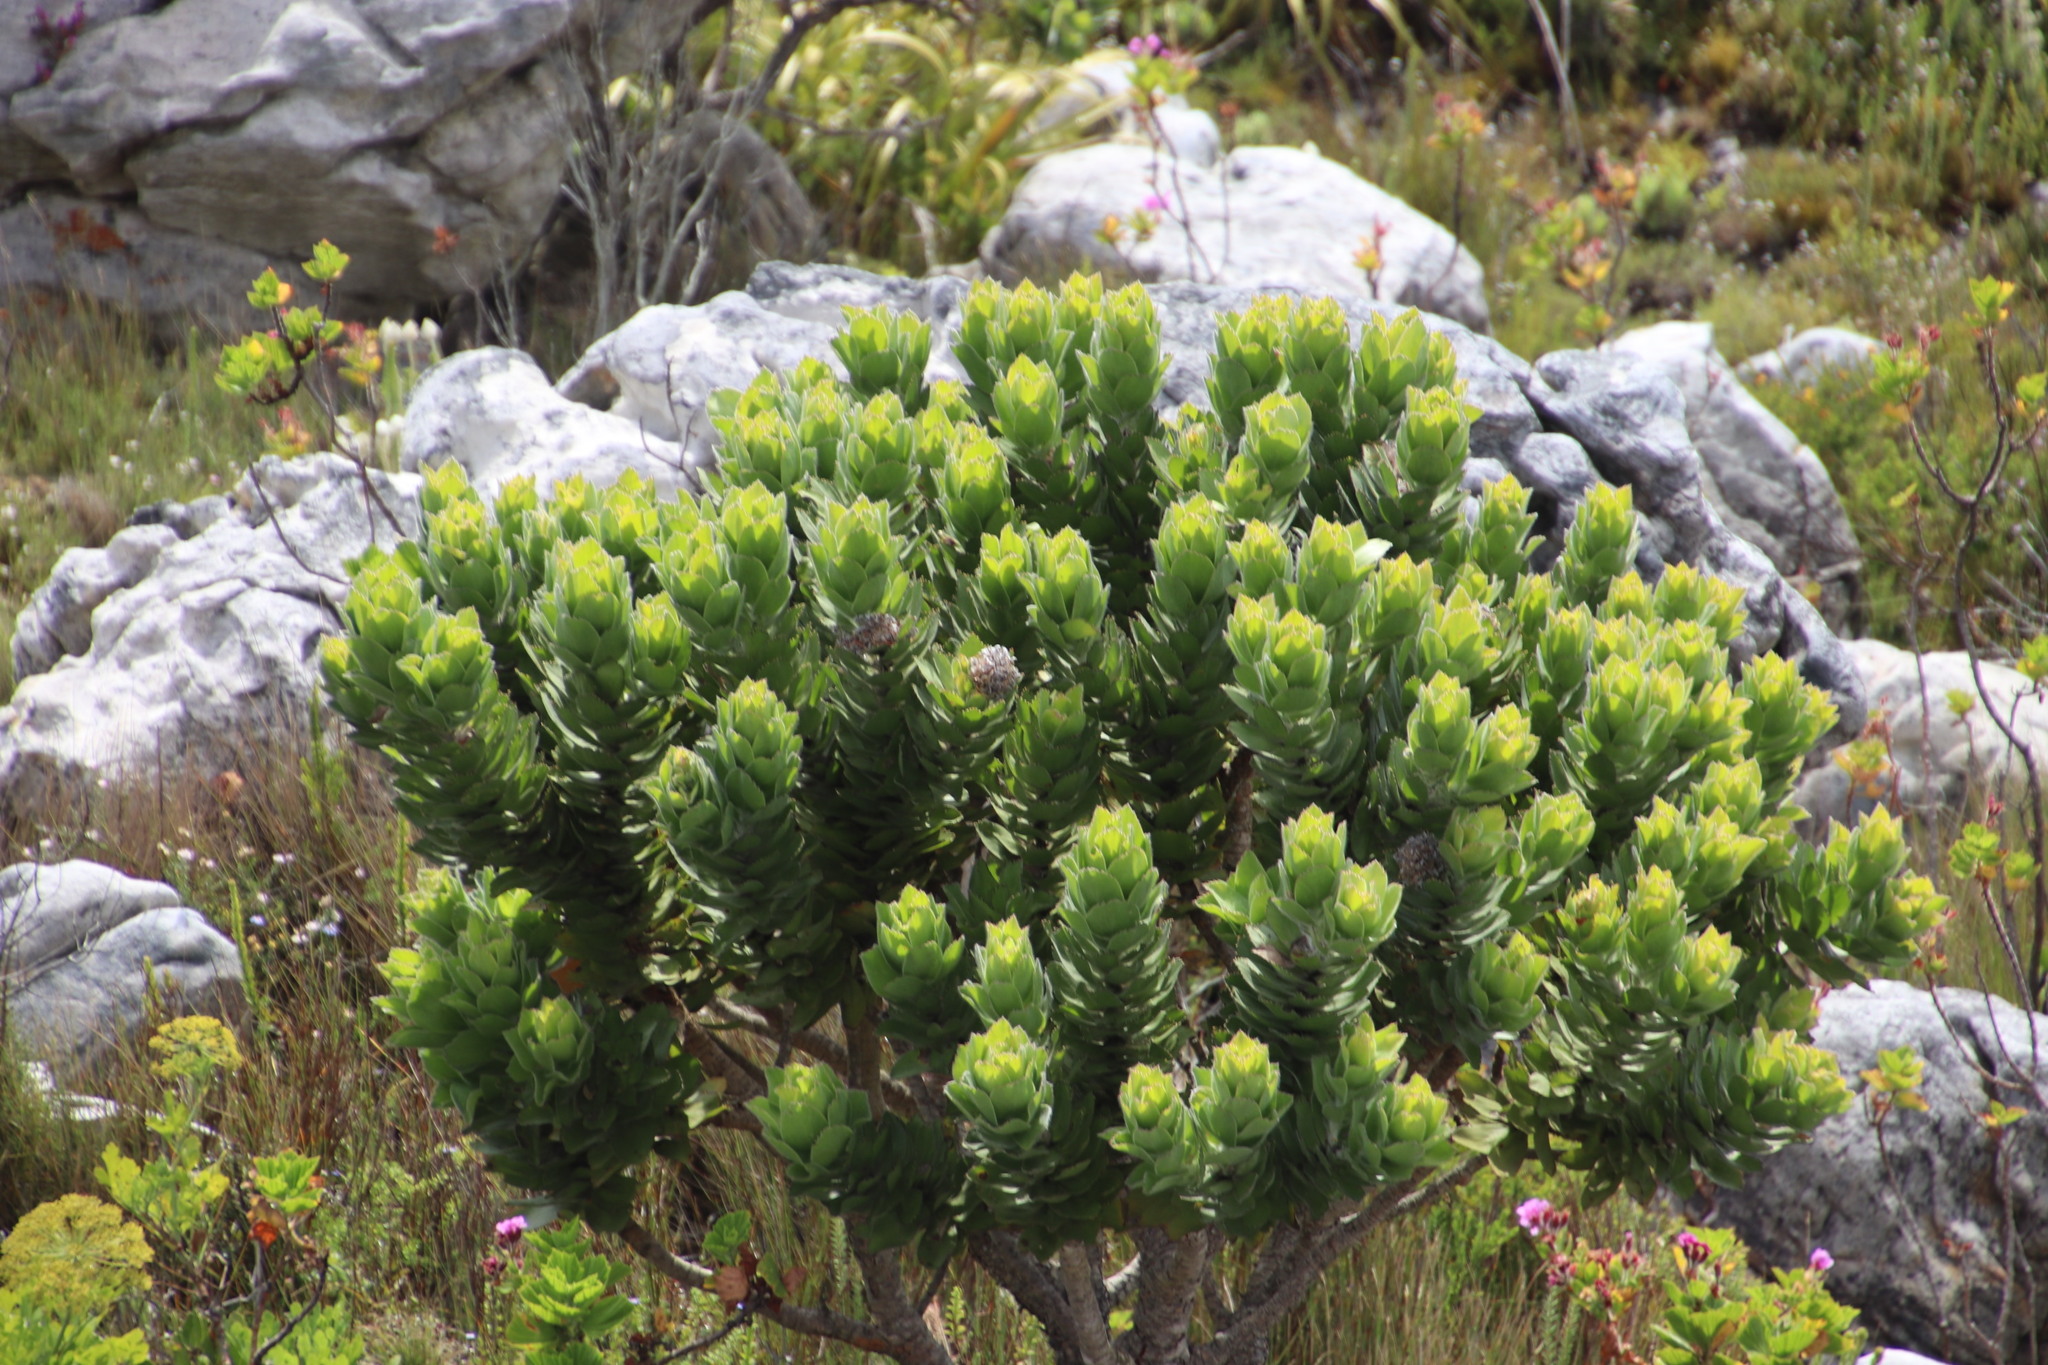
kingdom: Plantae
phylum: Tracheophyta
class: Magnoliopsida
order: Proteales
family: Proteaceae
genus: Leucospermum
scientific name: Leucospermum conocarpodendron
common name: Tree pincushion
